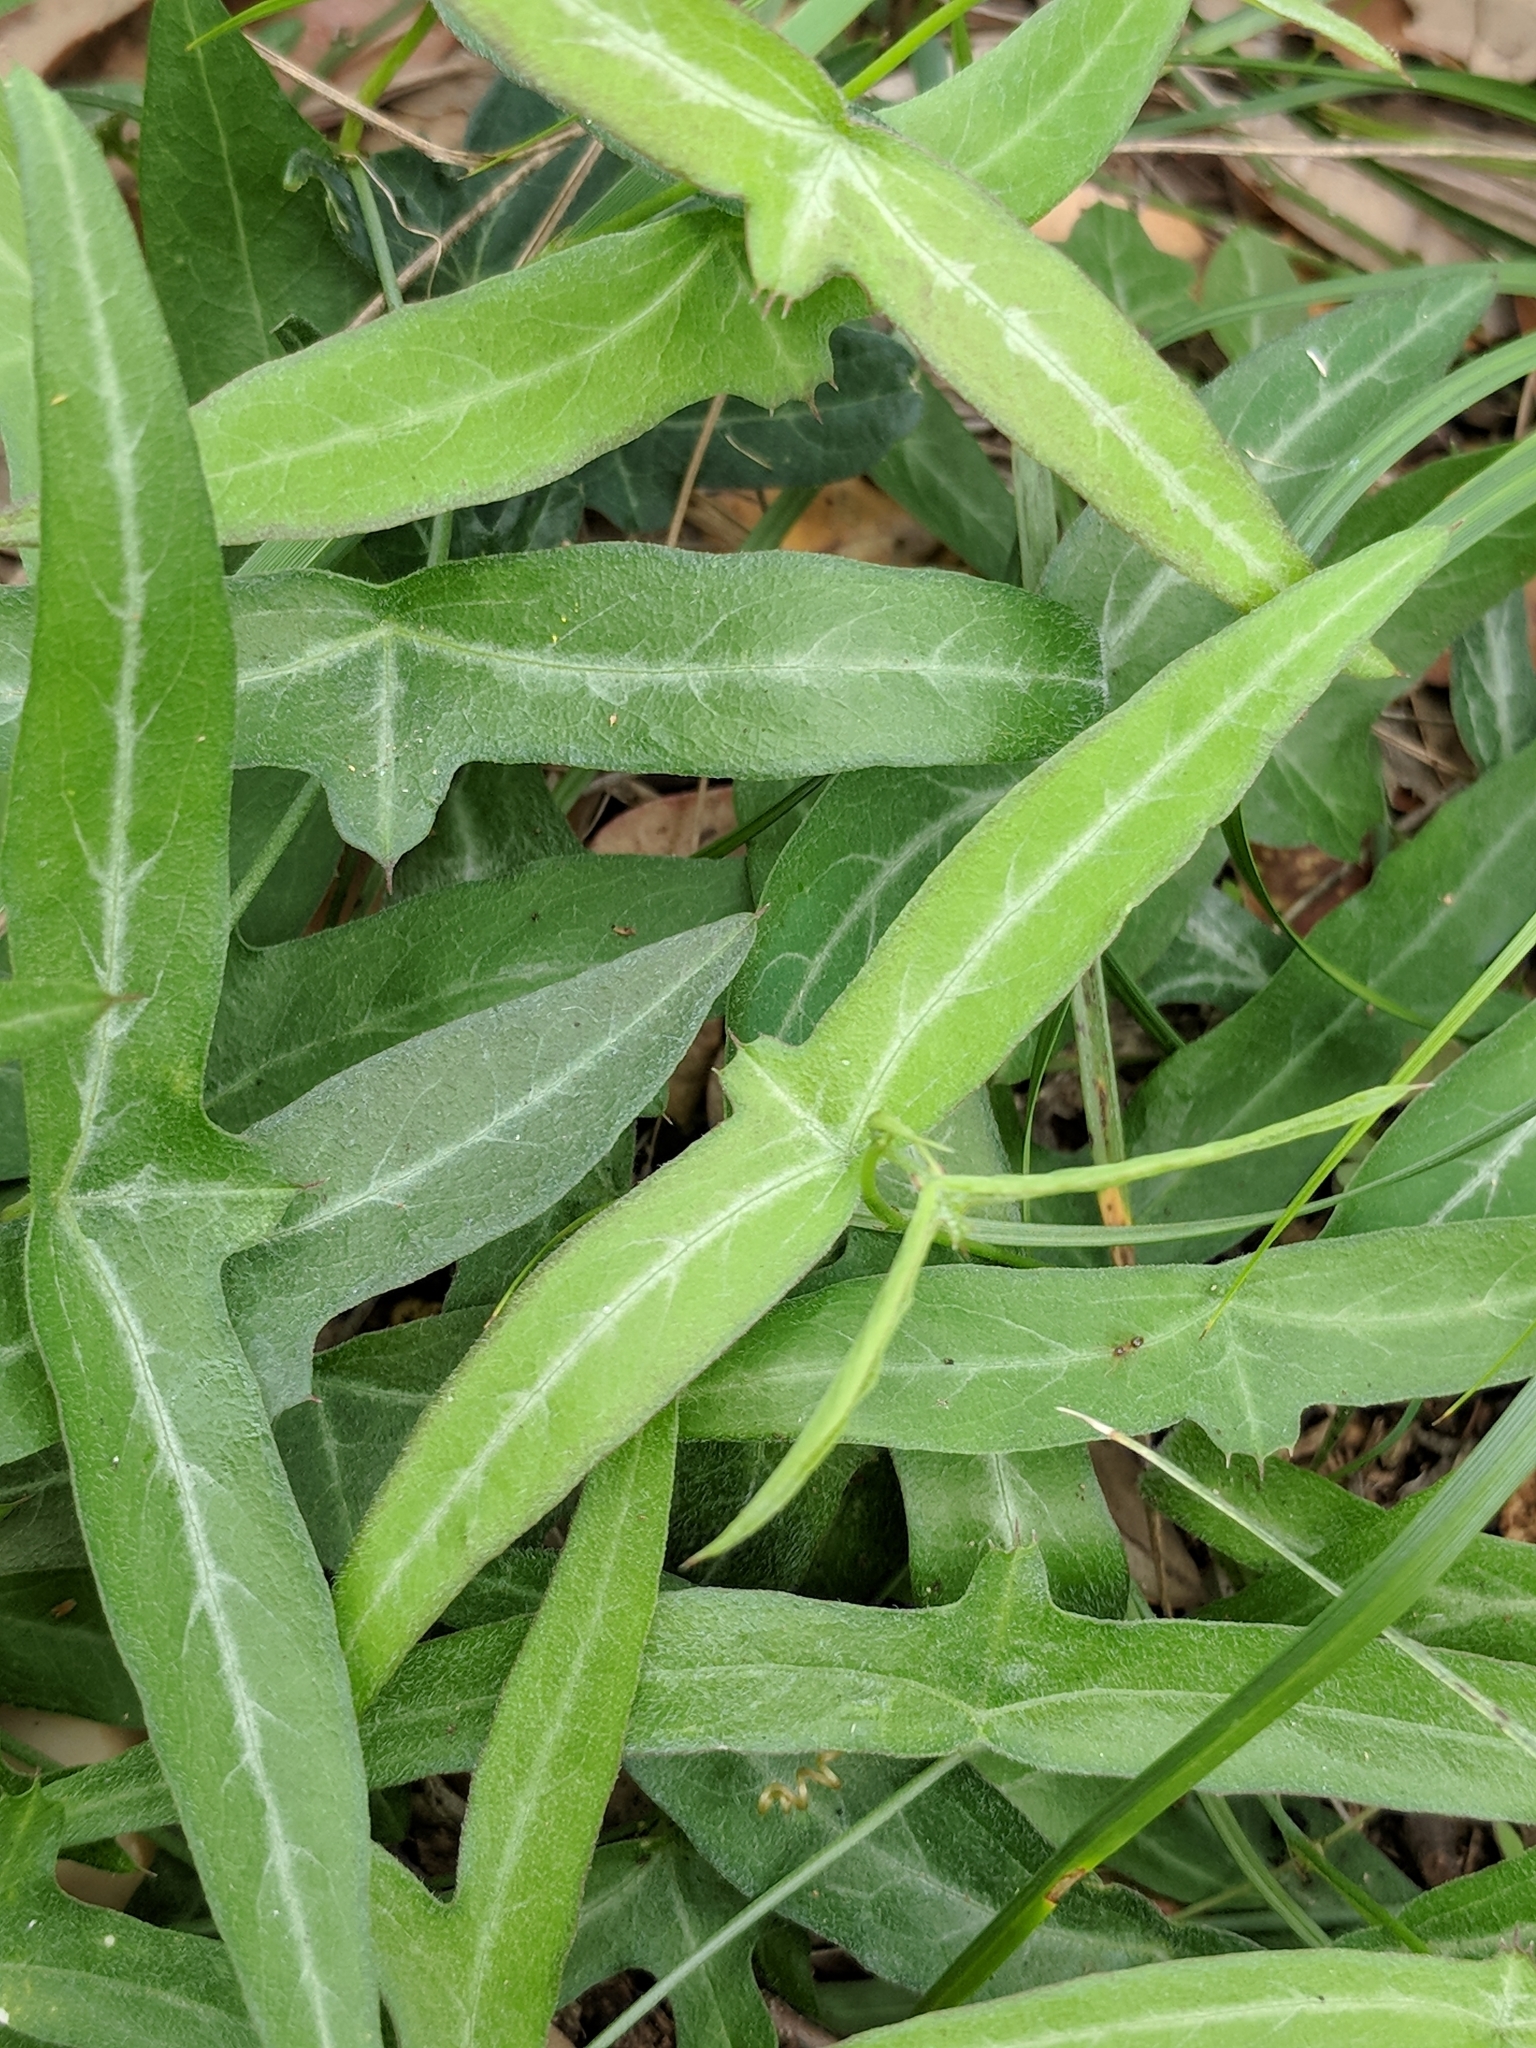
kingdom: Plantae
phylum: Tracheophyta
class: Magnoliopsida
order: Malpighiales
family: Passifloraceae
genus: Passiflora
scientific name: Passiflora tenuiloba
